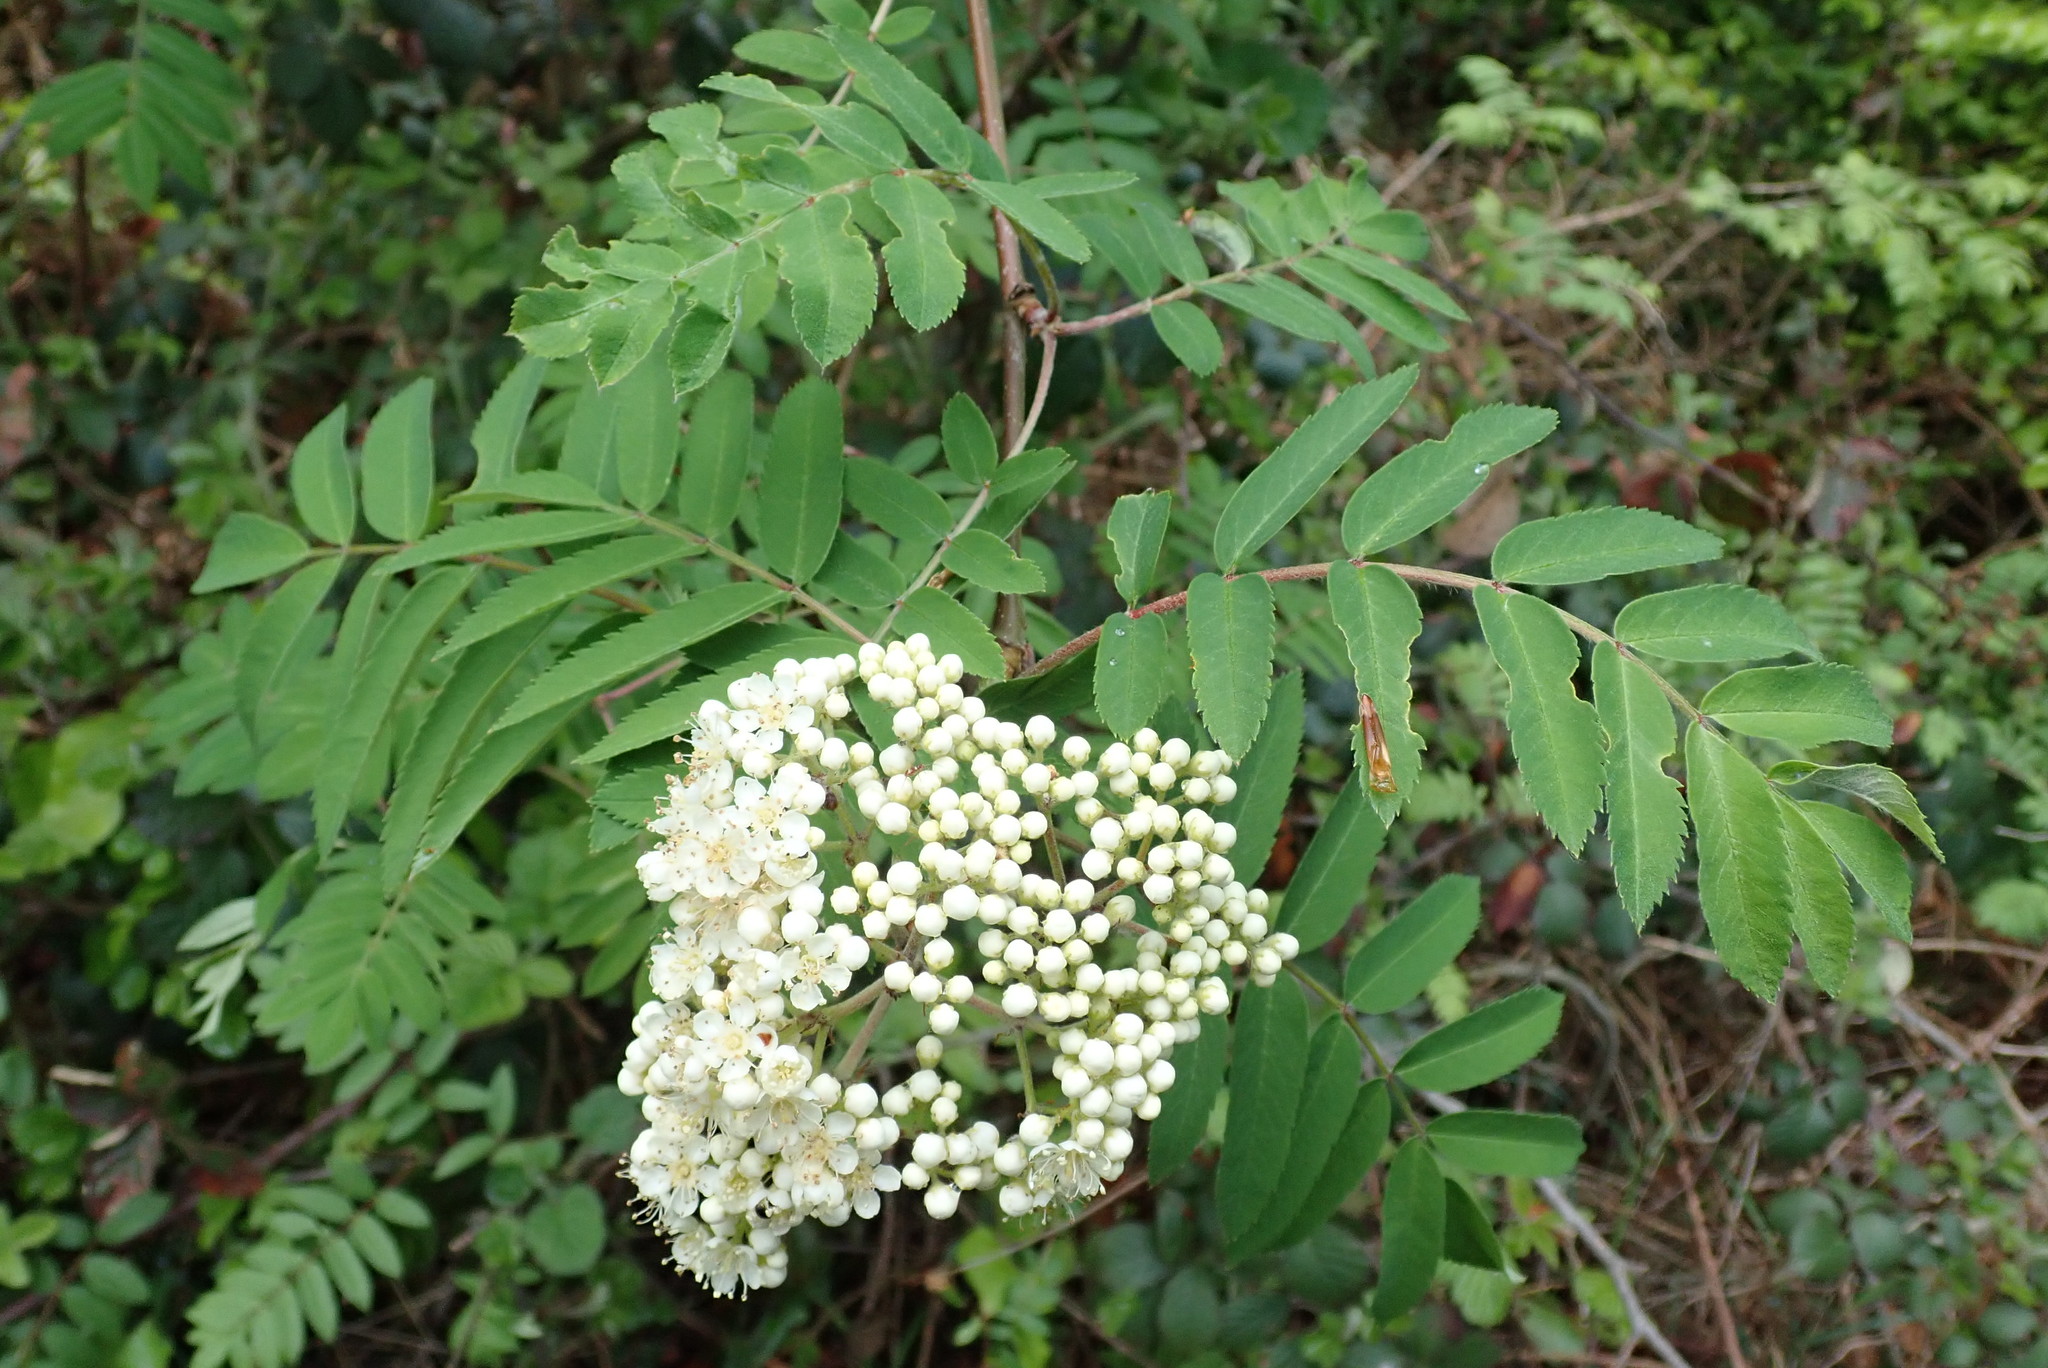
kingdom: Plantae
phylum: Tracheophyta
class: Magnoliopsida
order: Rosales
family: Rosaceae
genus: Sorbus
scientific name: Sorbus aucuparia
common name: Rowan
